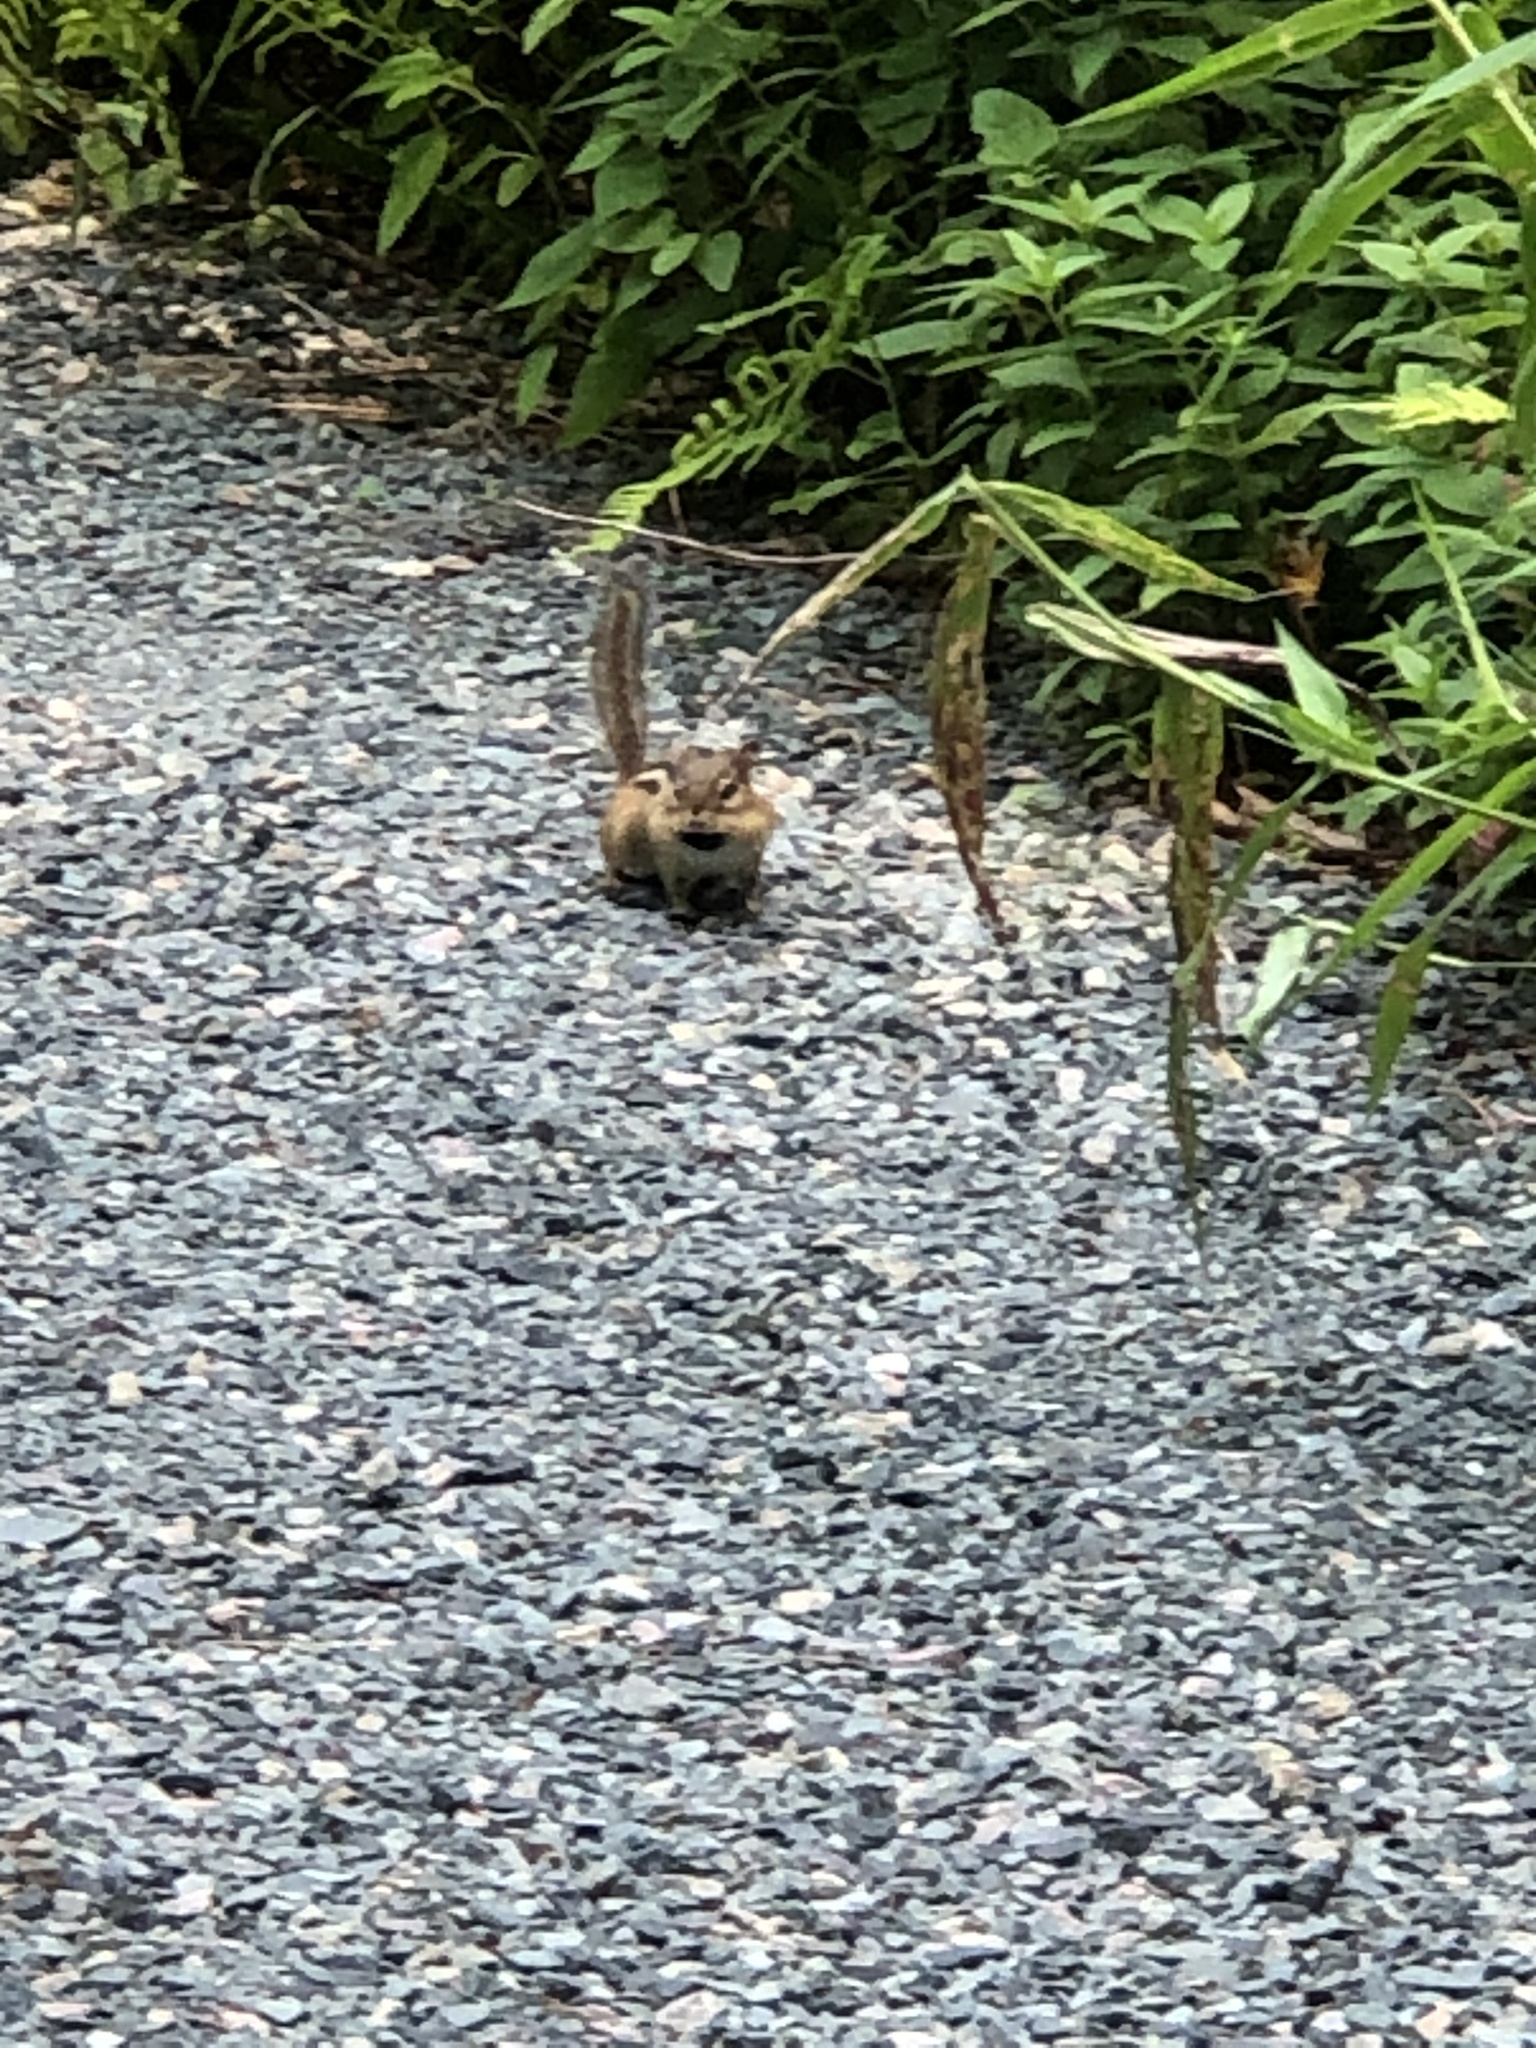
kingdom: Animalia
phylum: Chordata
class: Mammalia
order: Rodentia
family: Sciuridae
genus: Tamias
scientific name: Tamias striatus
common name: Eastern chipmunk
